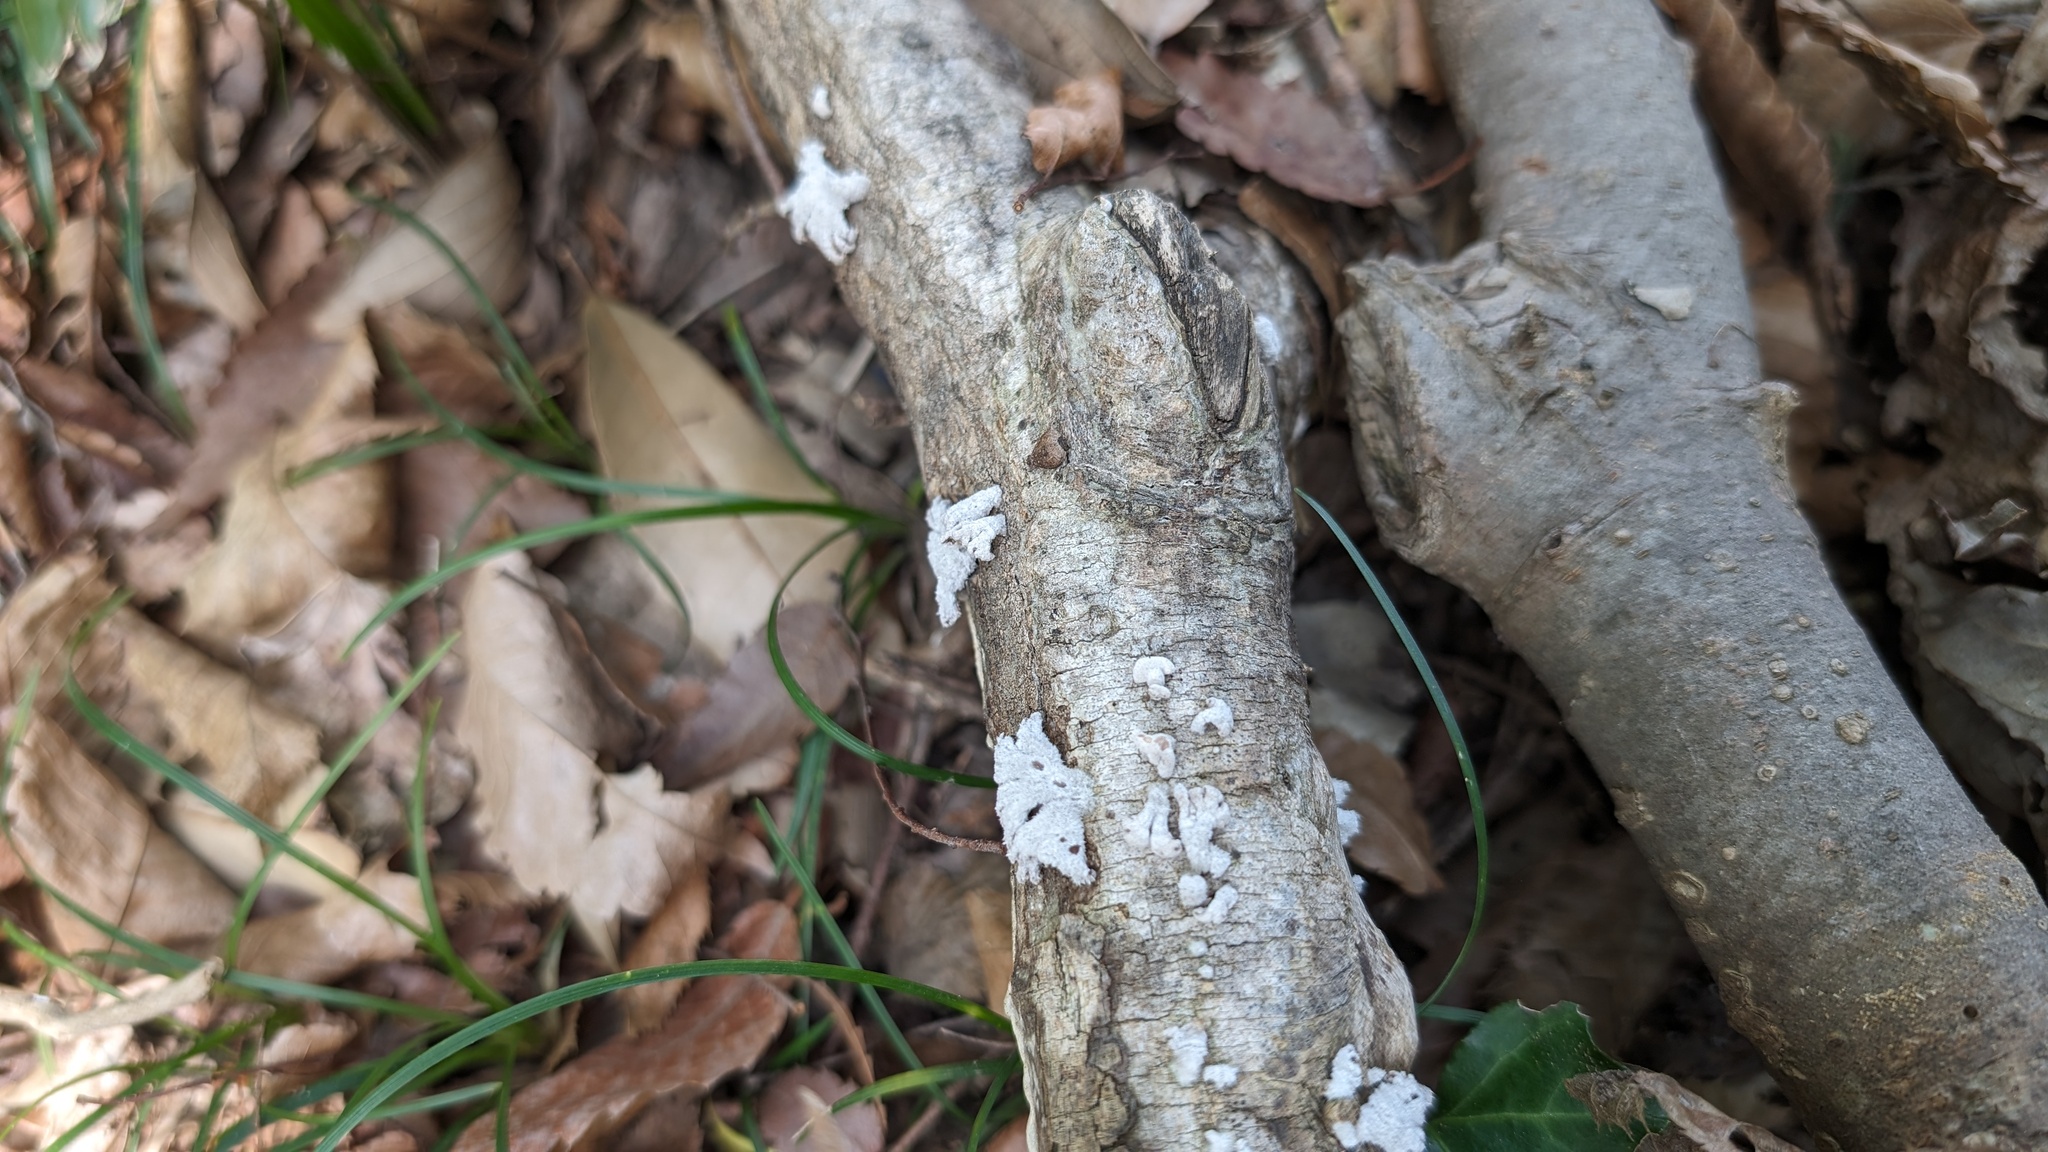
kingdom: Fungi
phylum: Basidiomycota
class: Agaricomycetes
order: Agaricales
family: Schizophyllaceae
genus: Schizophyllum
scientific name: Schizophyllum commune
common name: Common porecrust
